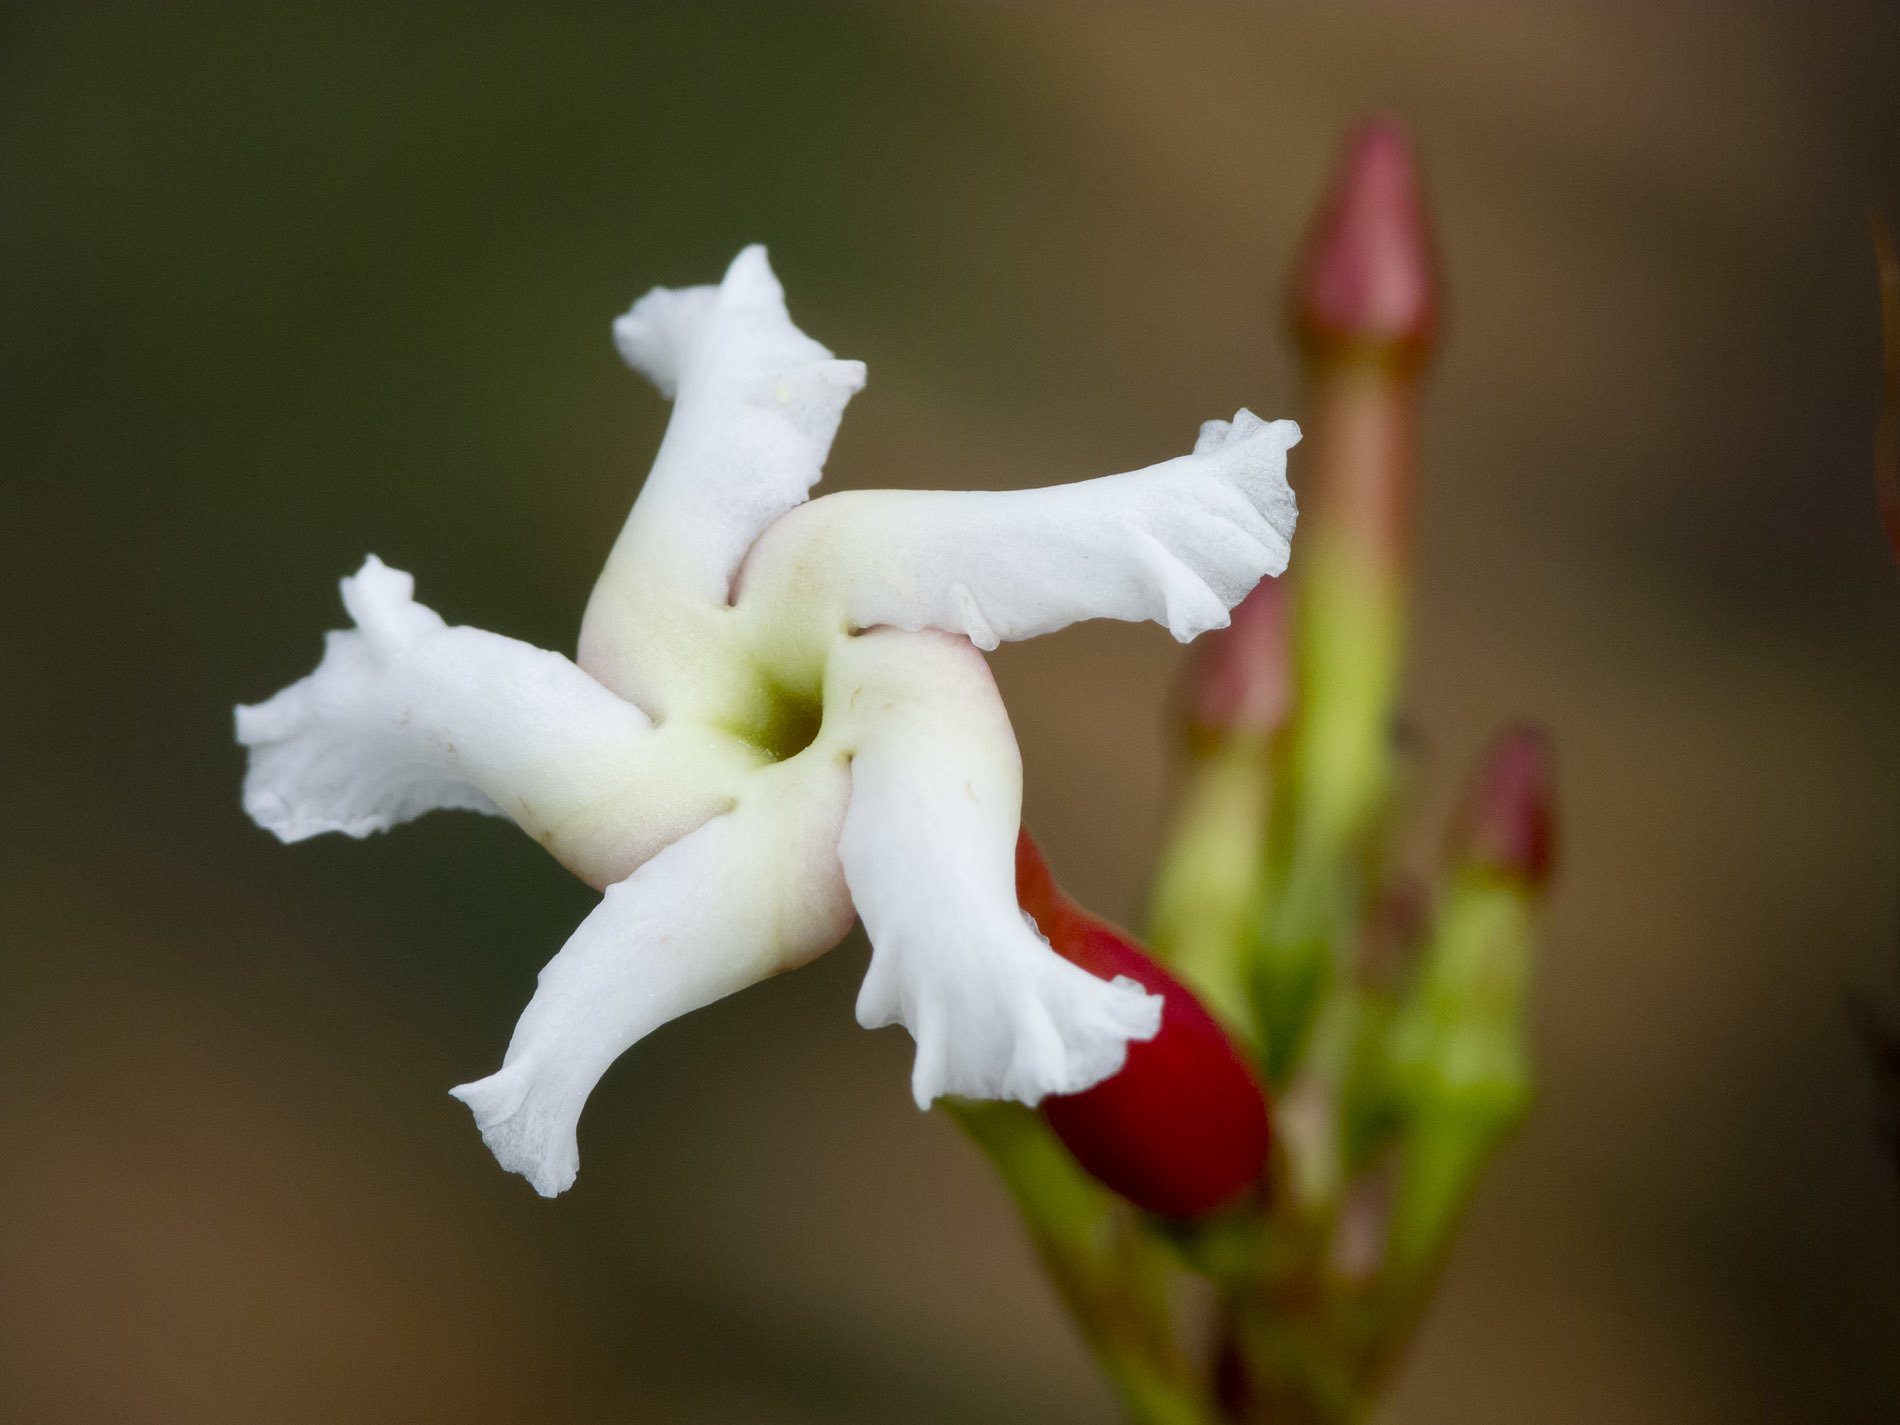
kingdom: Plantae
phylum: Tracheophyta
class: Magnoliopsida
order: Gentianales
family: Apocynaceae
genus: Mesechites
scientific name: Mesechites citrifolius
